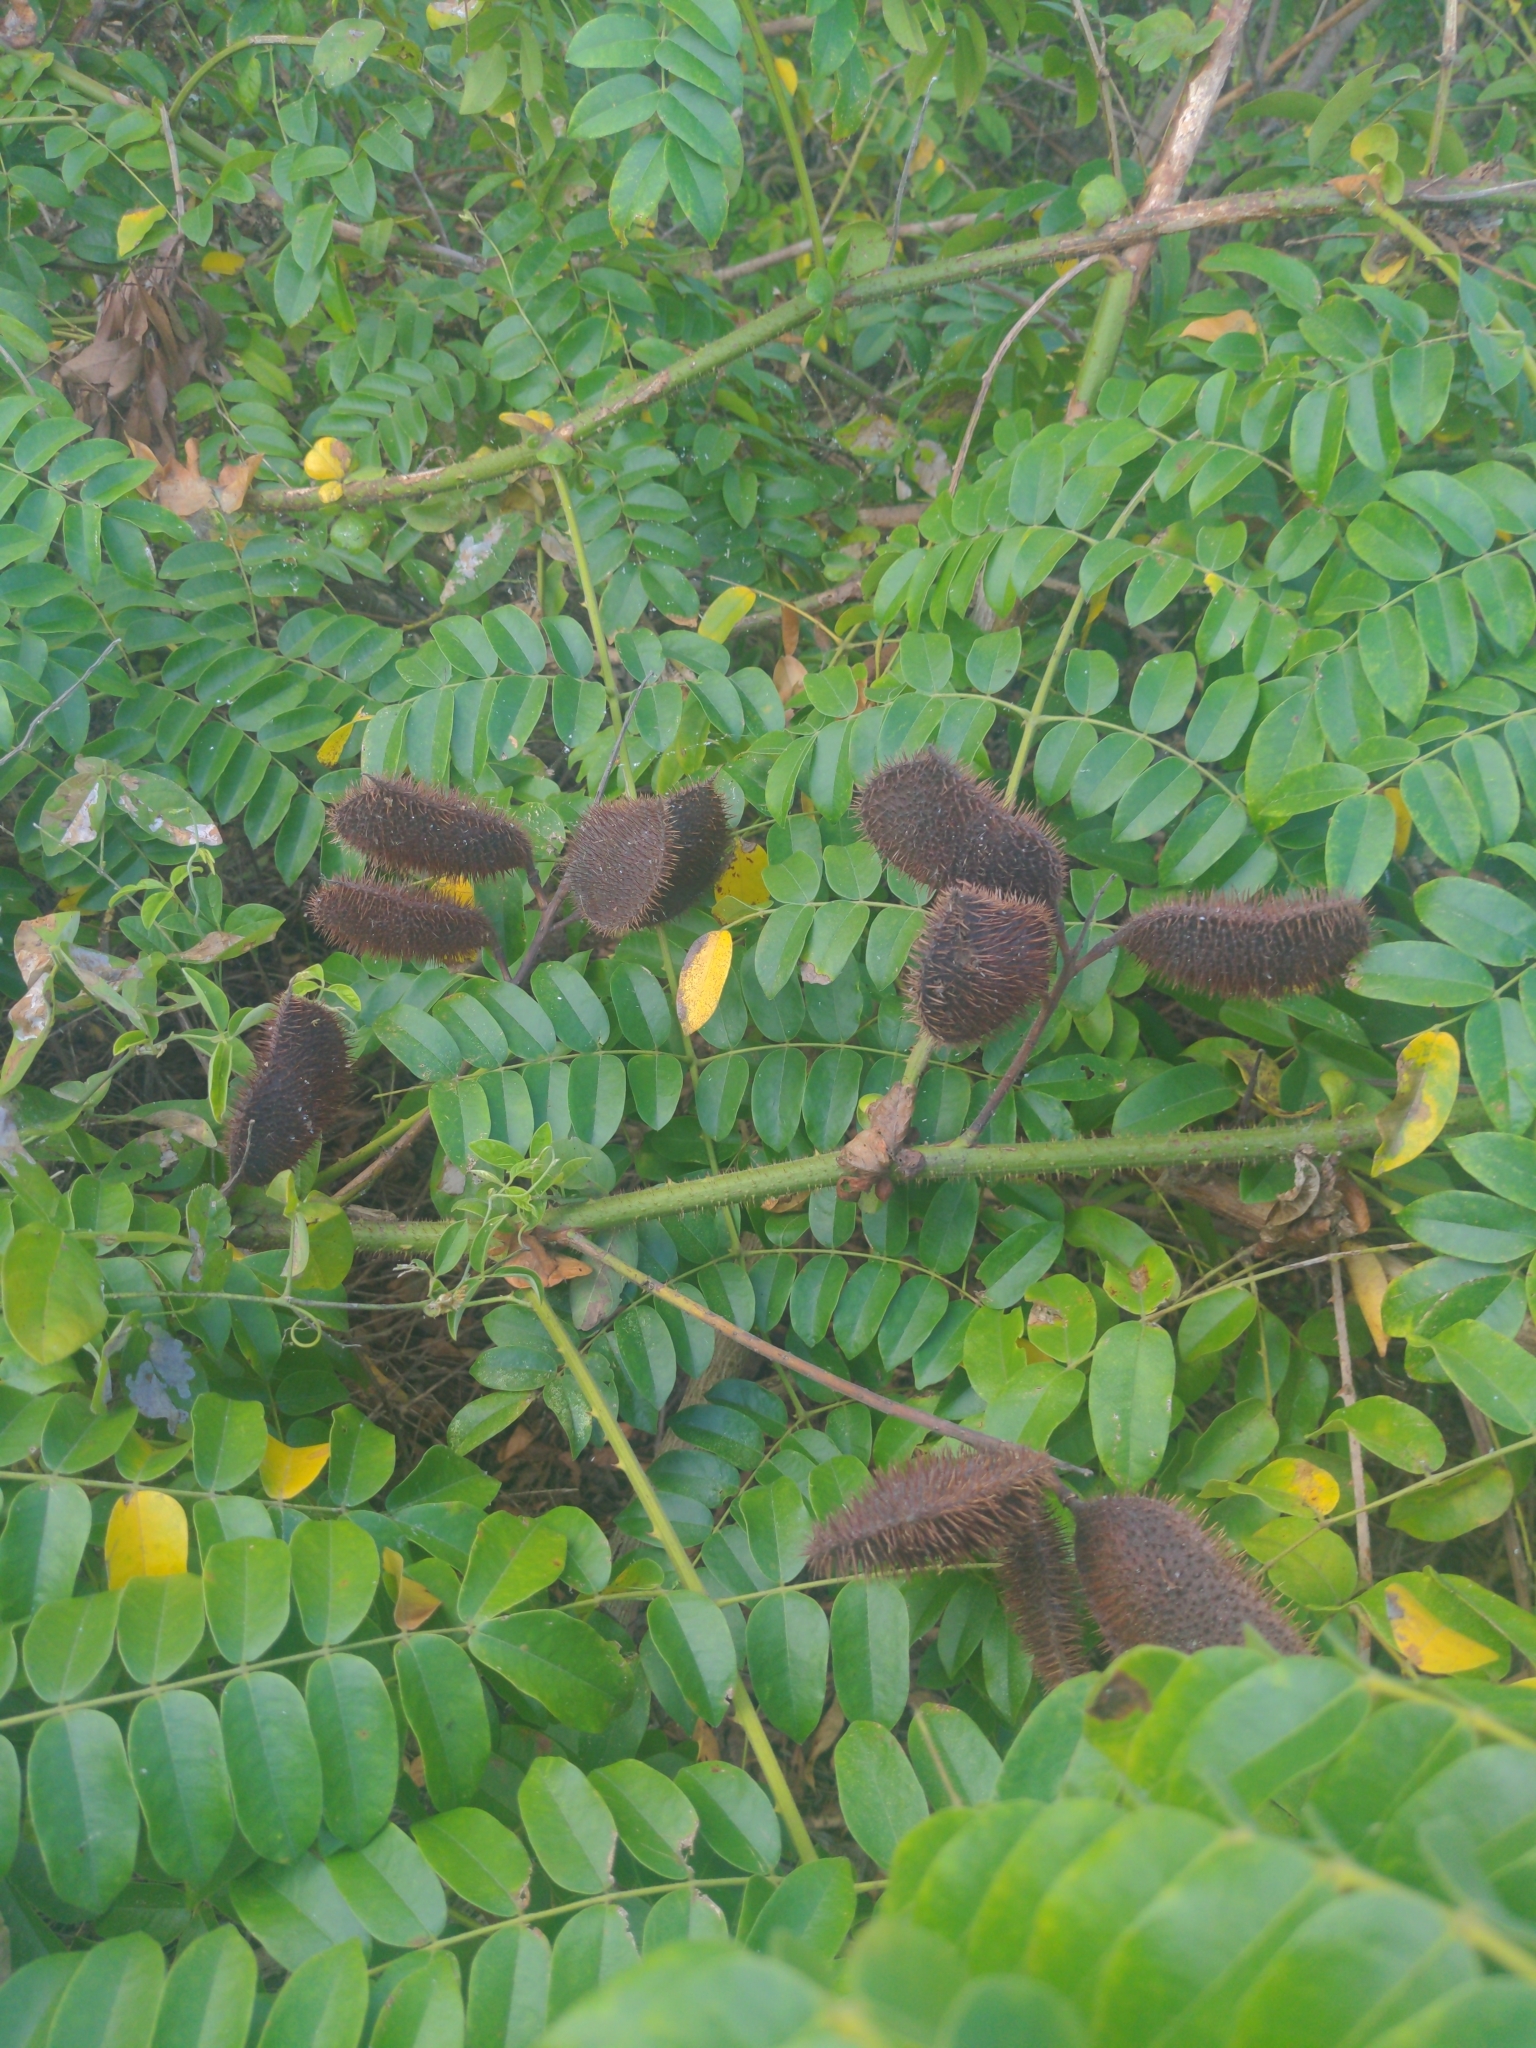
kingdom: Plantae
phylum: Tracheophyta
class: Magnoliopsida
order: Fabales
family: Fabaceae
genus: Guilandina
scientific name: Guilandina bonduc
